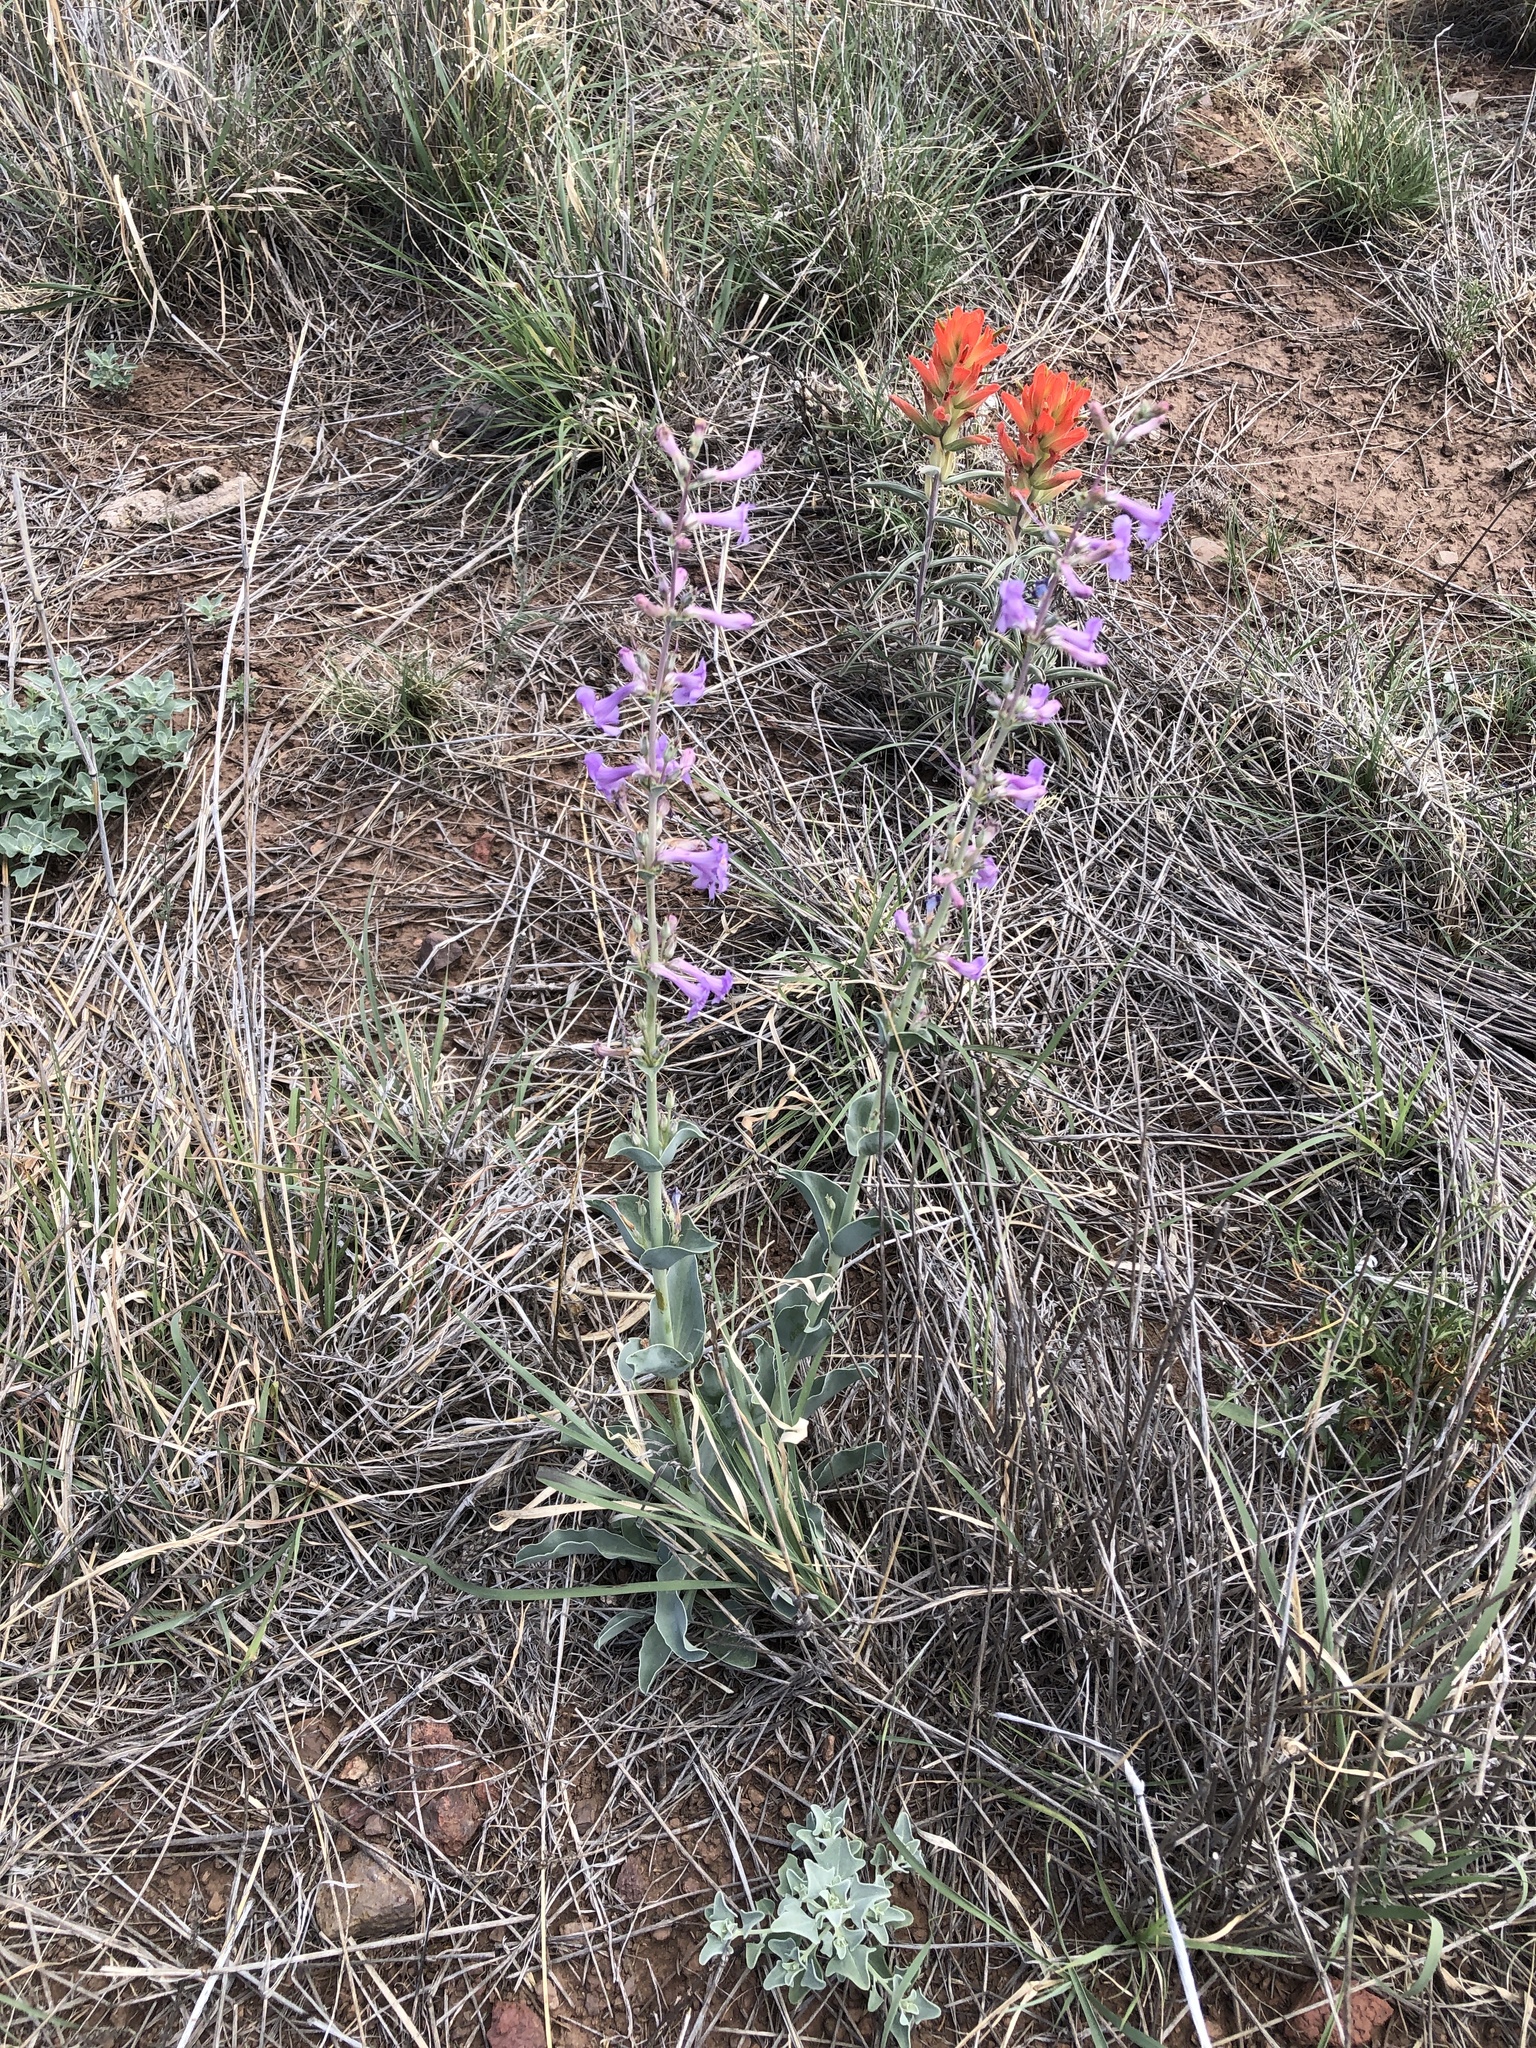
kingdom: Plantae
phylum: Tracheophyta
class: Magnoliopsida
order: Lamiales
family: Plantaginaceae
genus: Penstemon
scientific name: Penstemon fendleri
